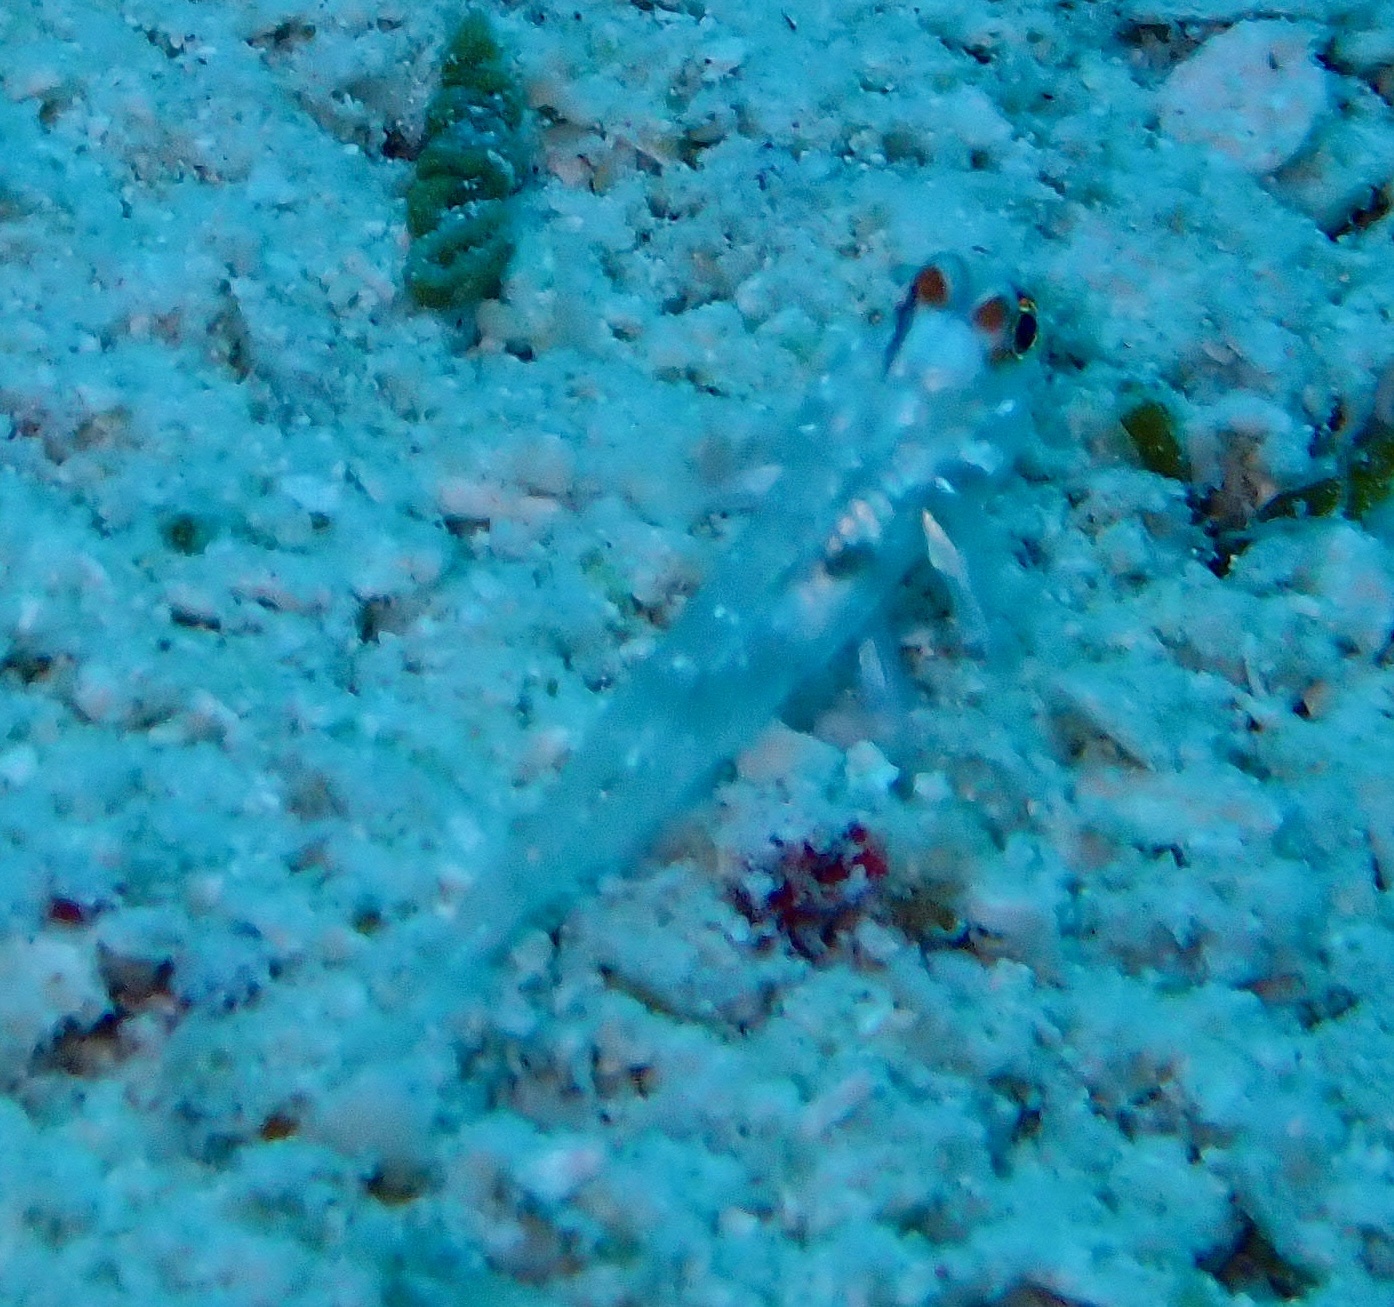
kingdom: Animalia
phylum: Chordata
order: Perciformes
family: Gobiidae
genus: Fusigobius
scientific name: Fusigobius signipinnis
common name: Flasher sand-goby
